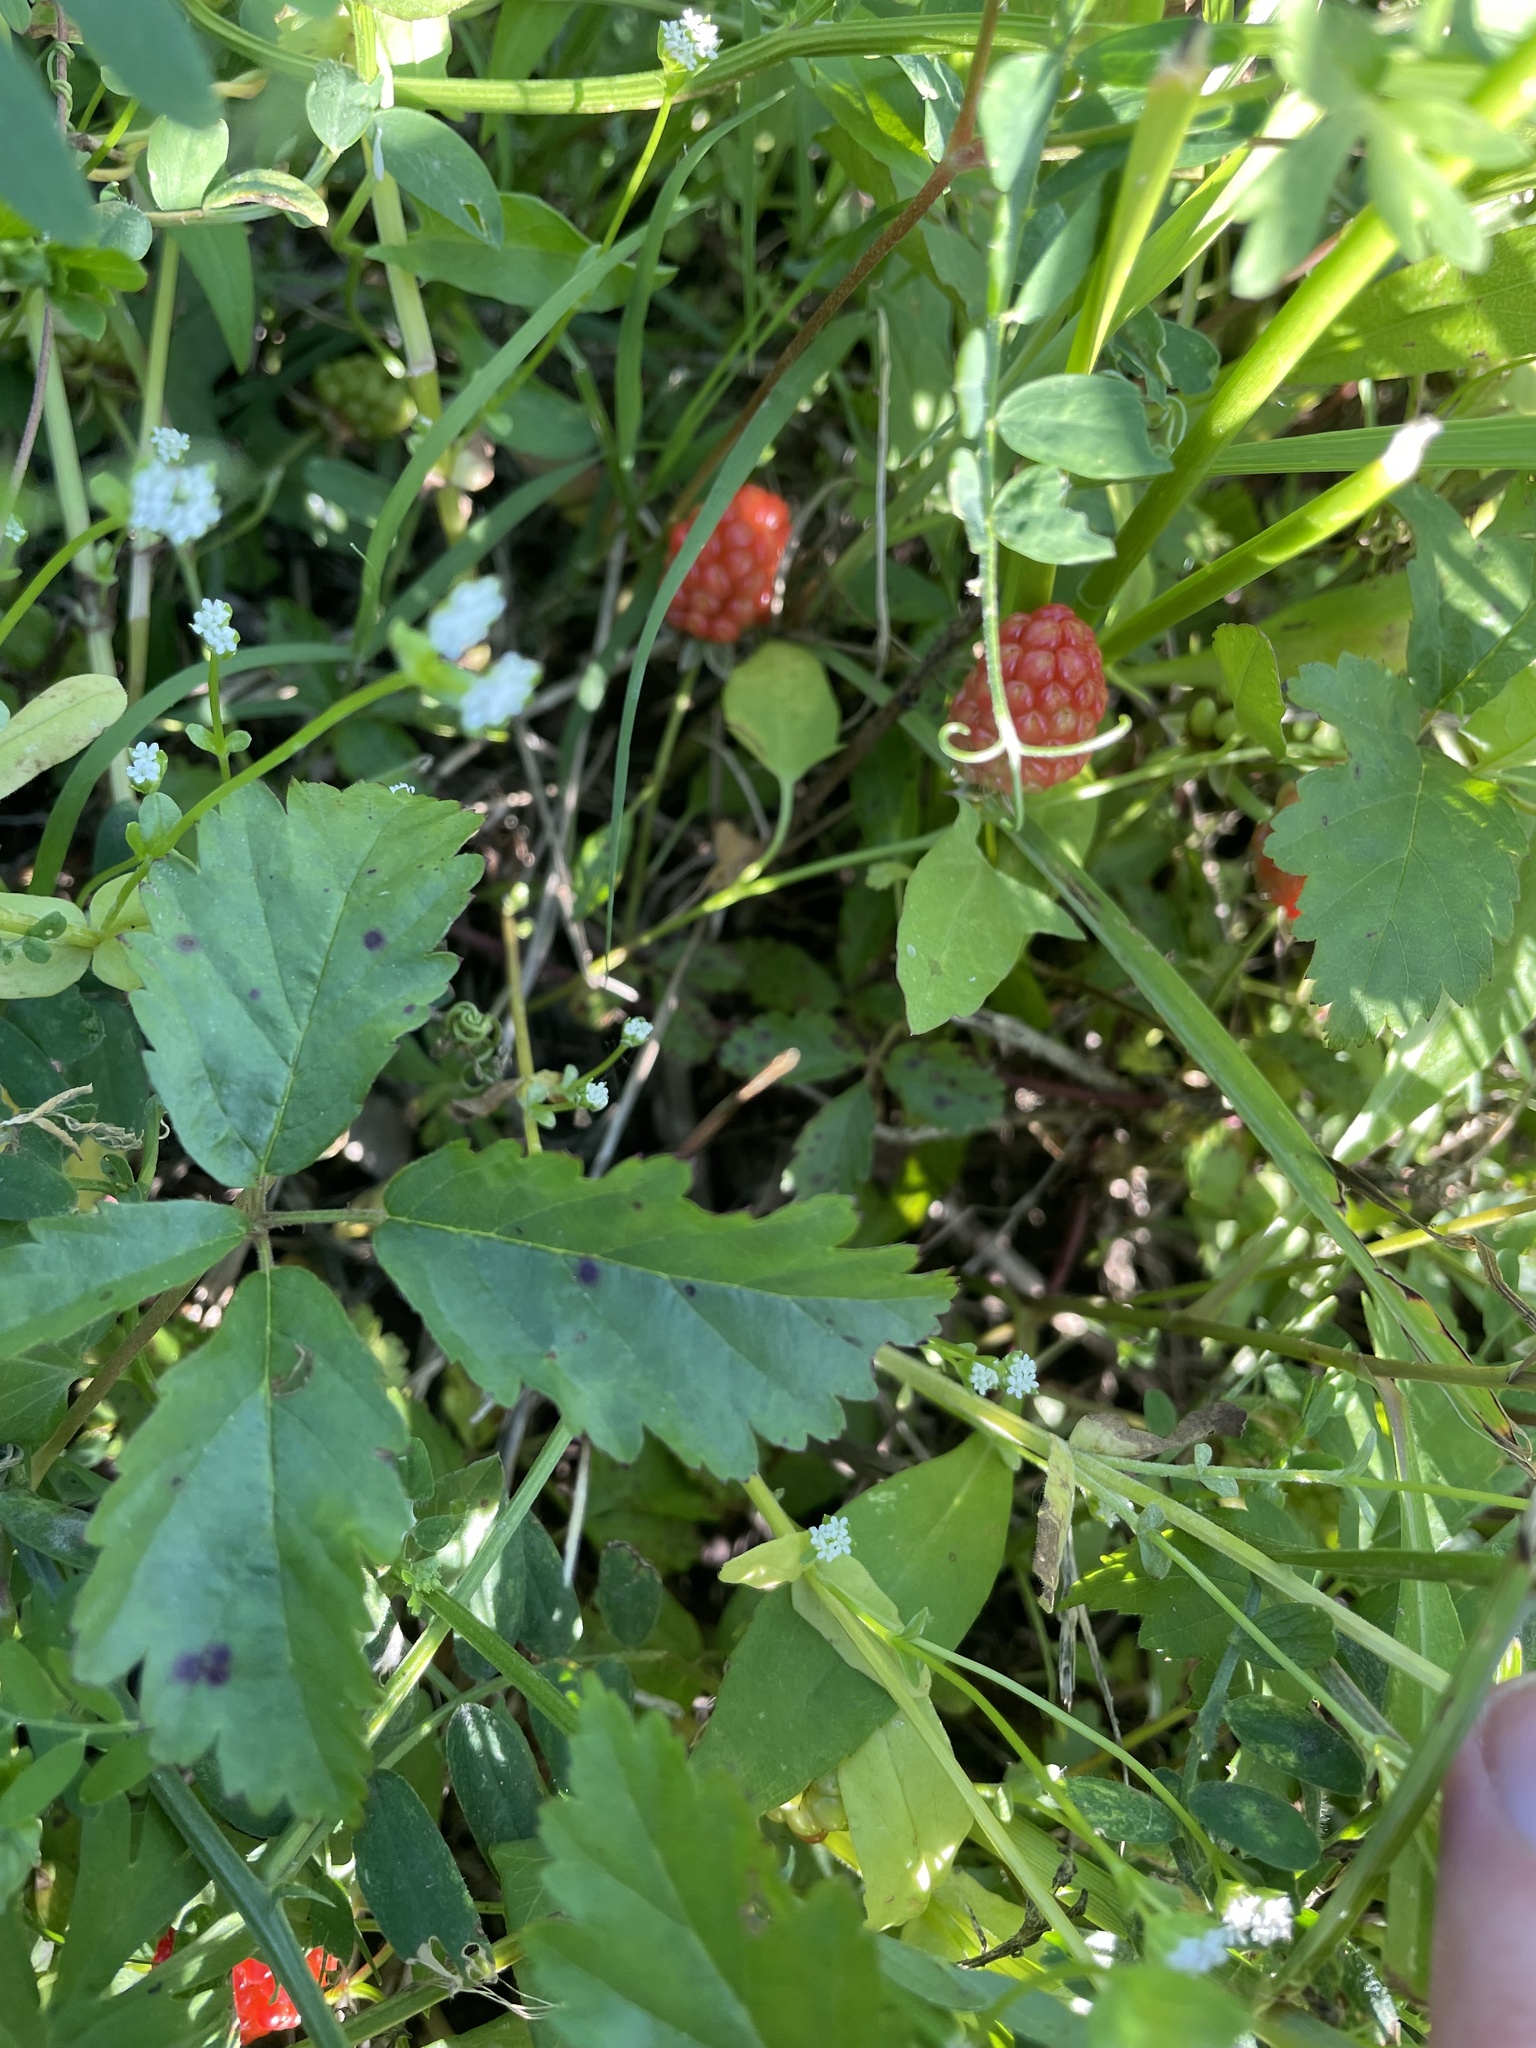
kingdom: Plantae
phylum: Tracheophyta
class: Magnoliopsida
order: Rosales
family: Rosaceae
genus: Rubus
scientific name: Rubus trivialis
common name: Southern dewberry
